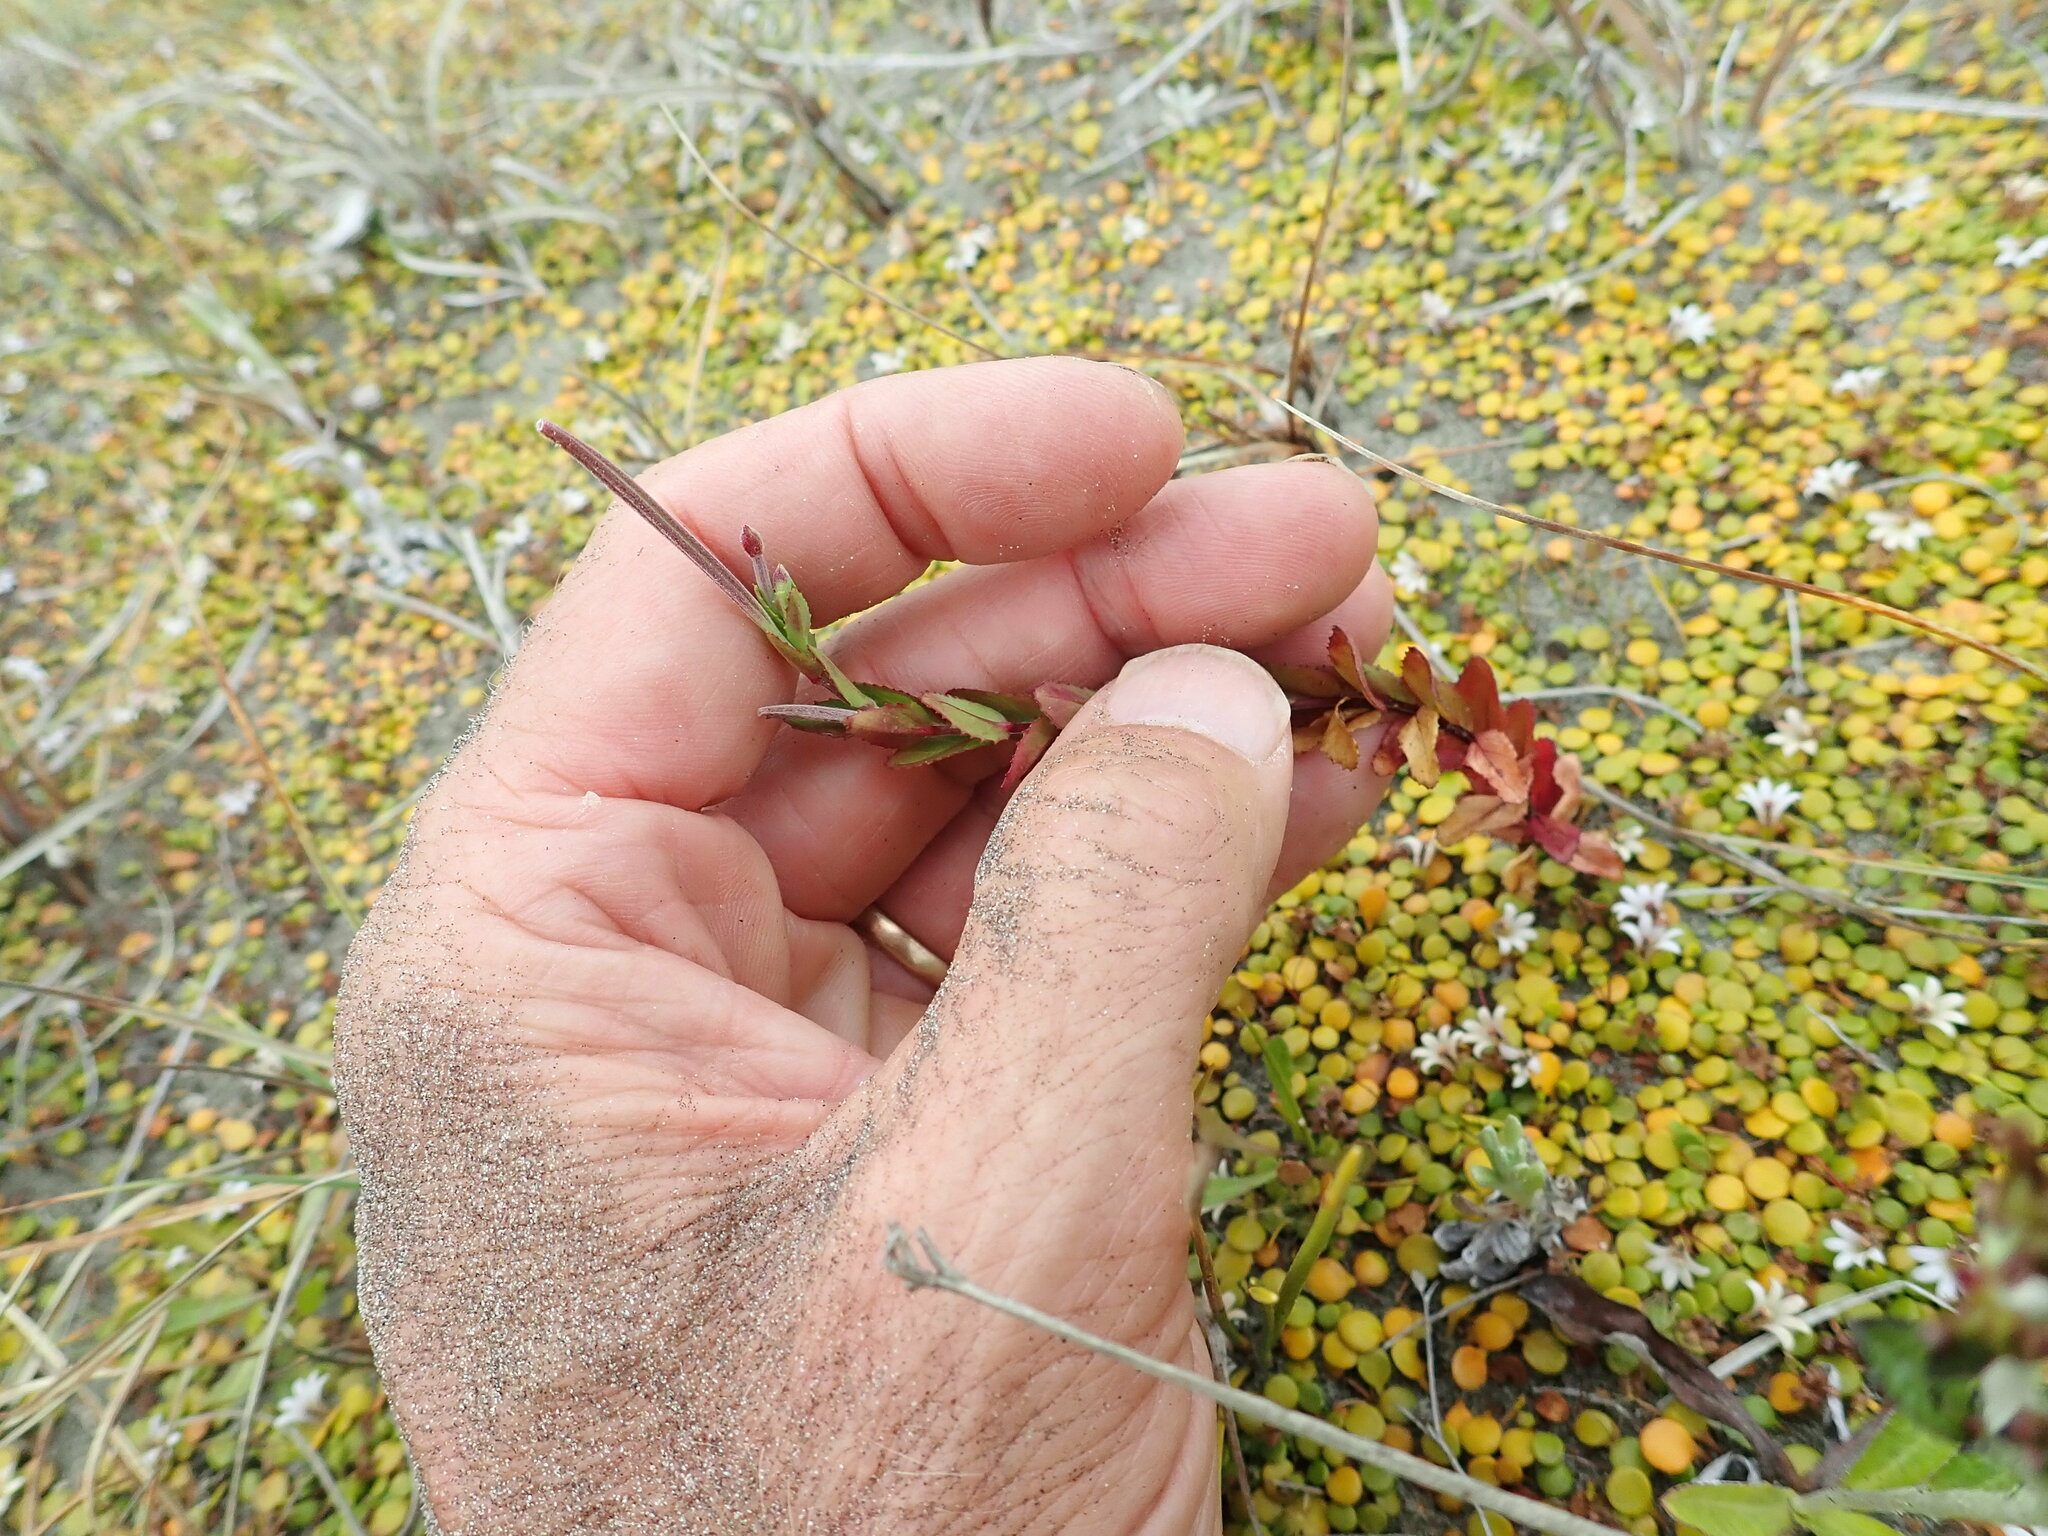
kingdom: Plantae
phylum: Tracheophyta
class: Magnoliopsida
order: Myrtales
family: Onagraceae
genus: Epilobium
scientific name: Epilobium billardiereanum
